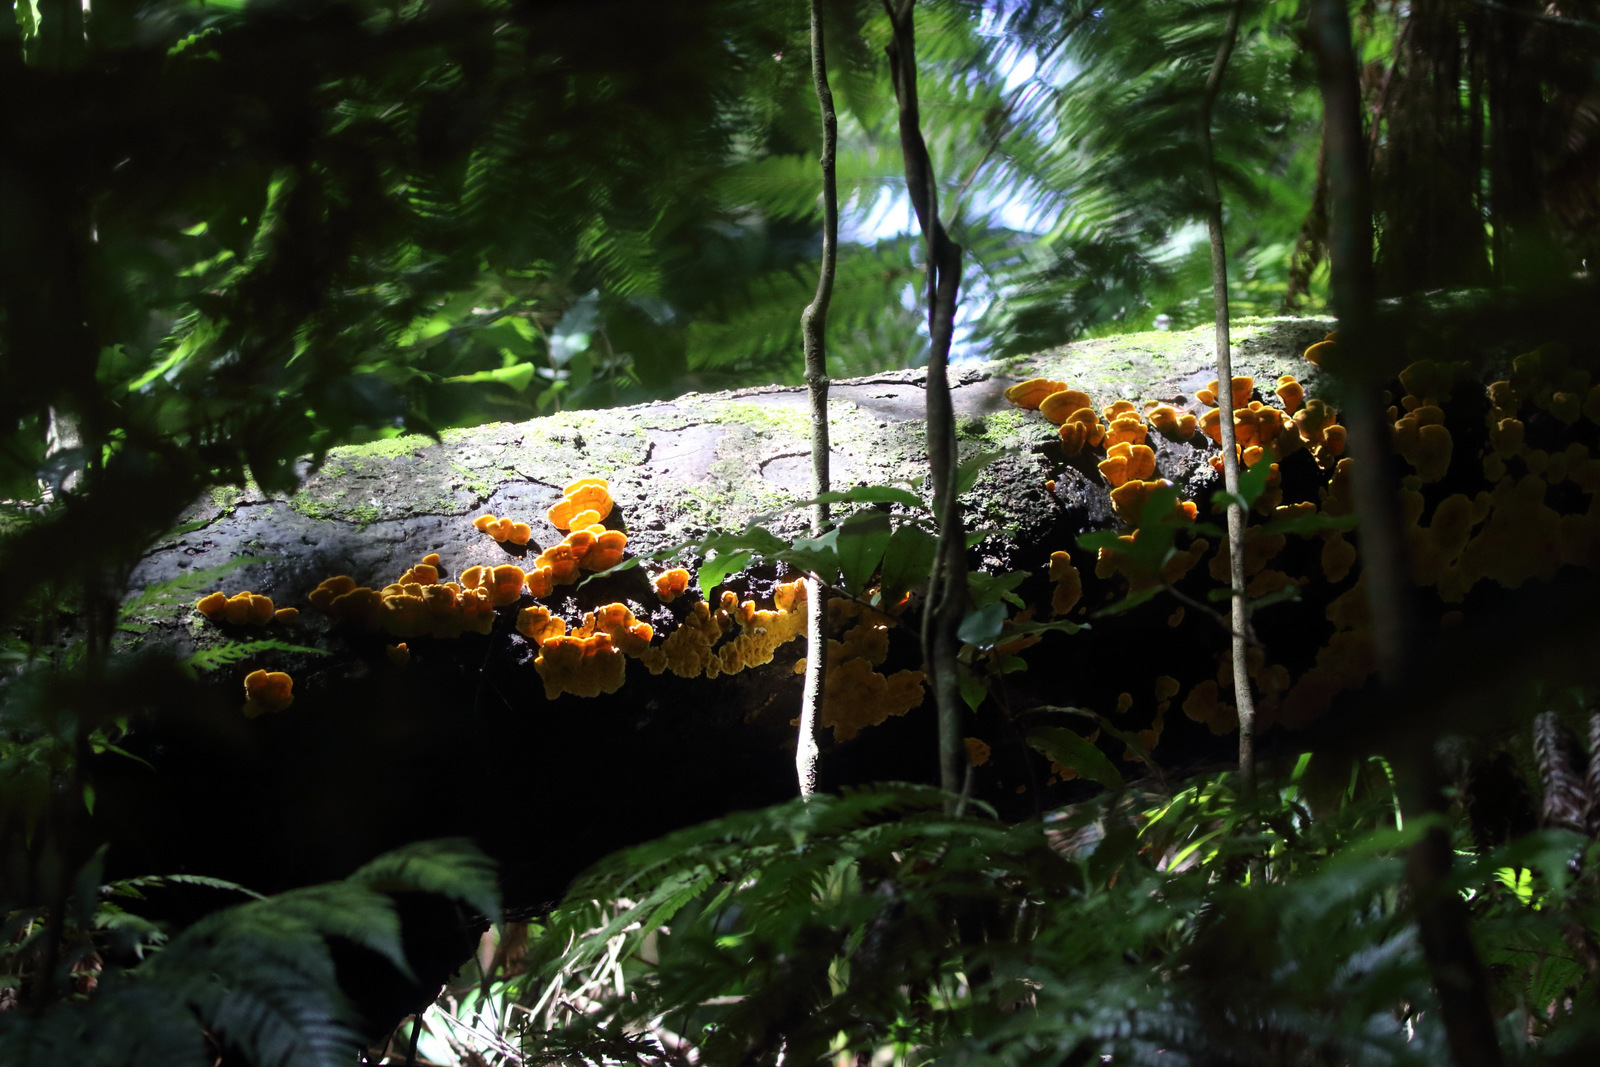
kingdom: Fungi
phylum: Basidiomycota
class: Agaricomycetes
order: Russulales
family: Stereaceae
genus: Stereum
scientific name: Stereum versicolor
